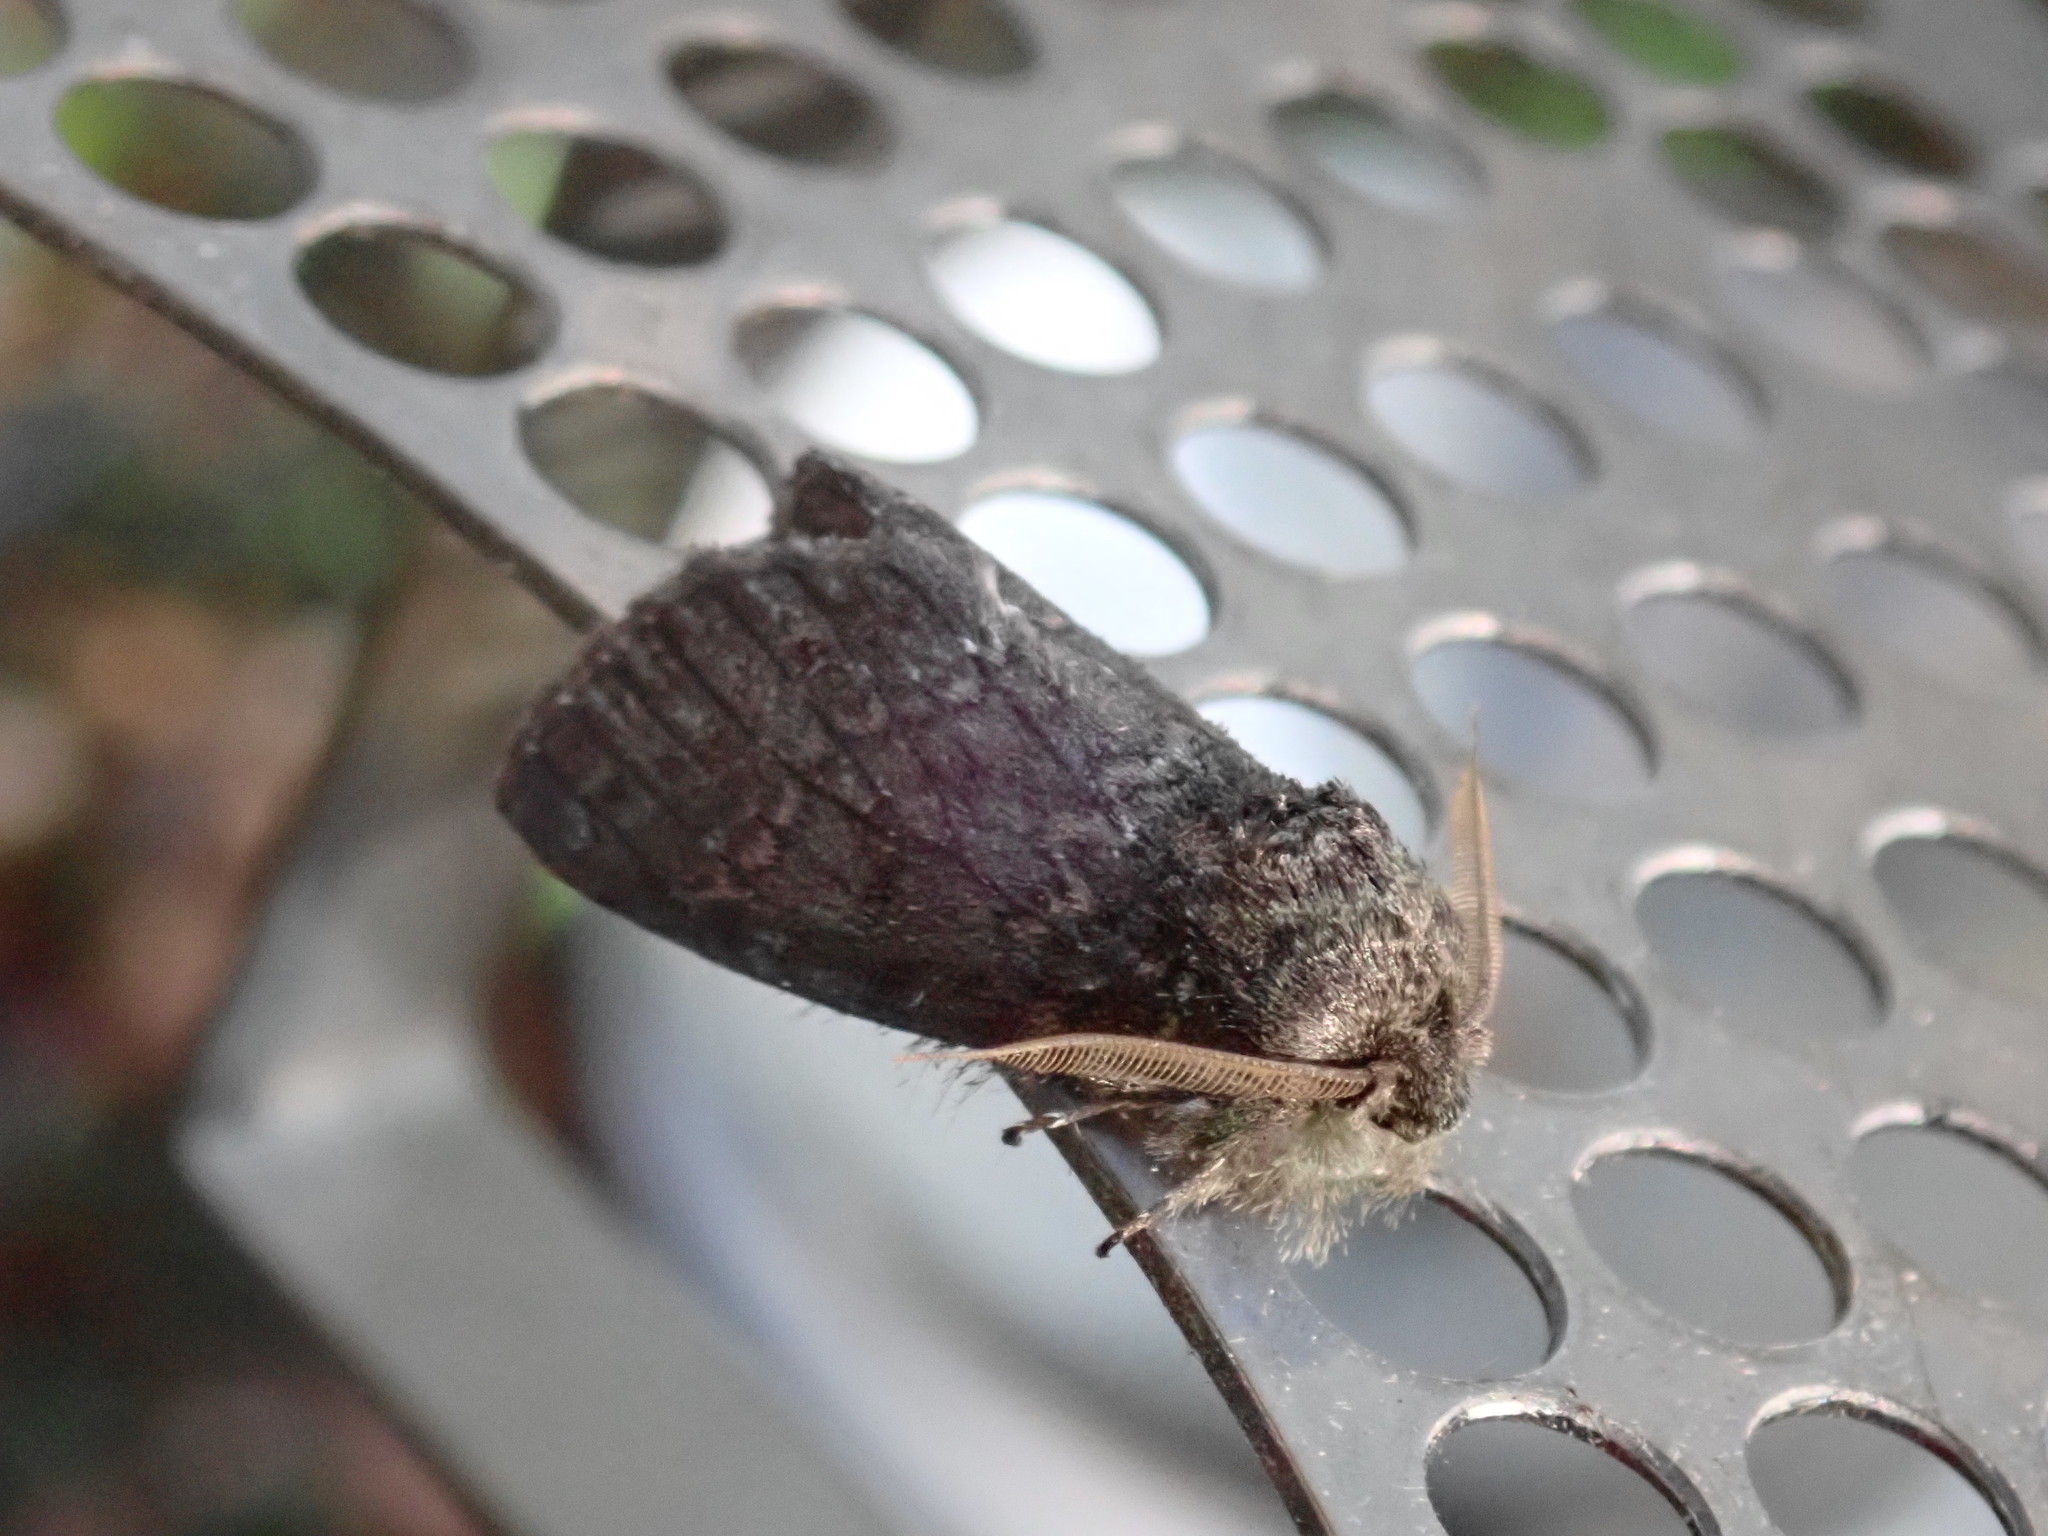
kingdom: Animalia
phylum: Arthropoda
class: Insecta
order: Lepidoptera
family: Notodontidae
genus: Disphragis
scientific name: Disphragis Cecrita guttivitta
